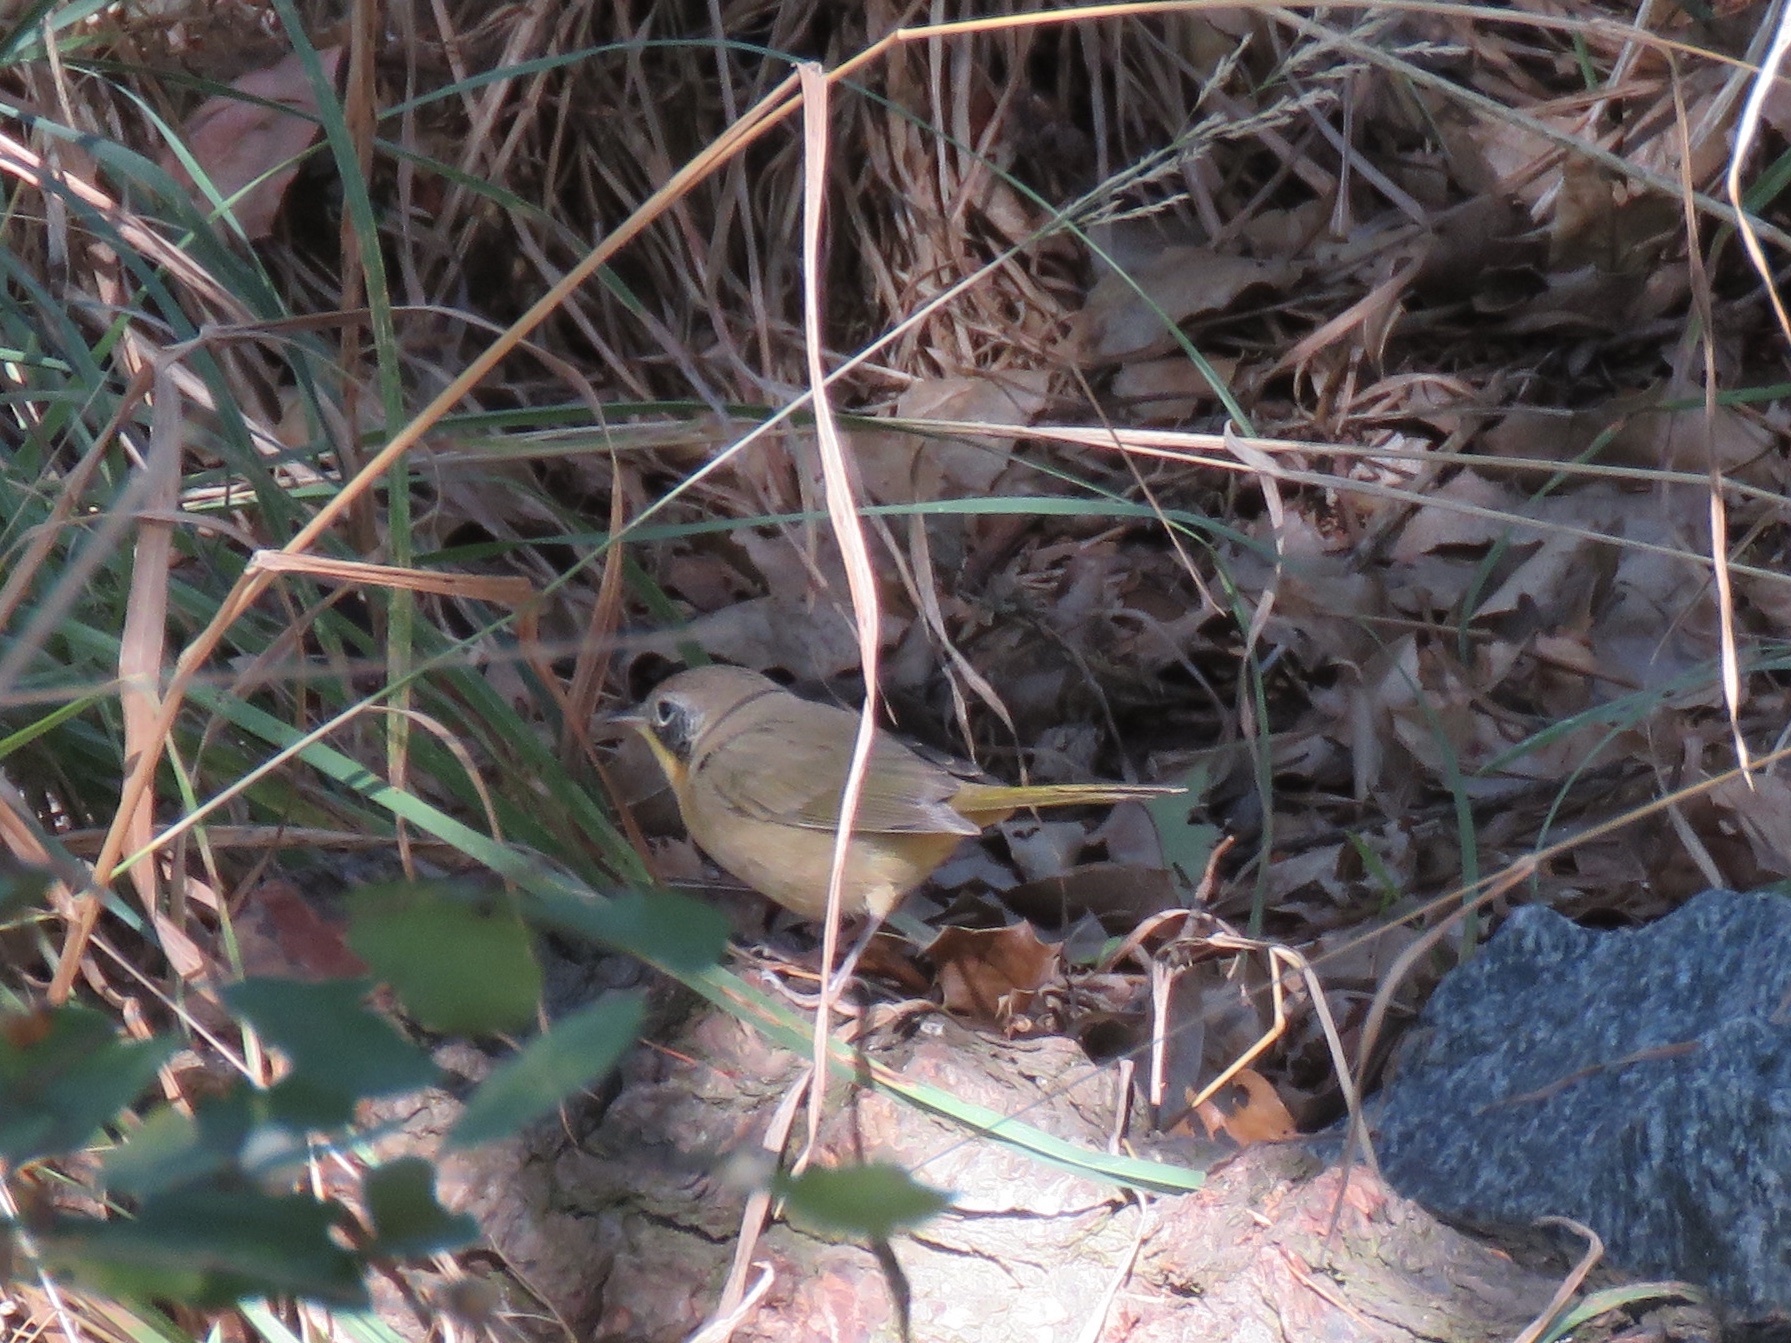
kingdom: Animalia
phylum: Chordata
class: Aves
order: Passeriformes
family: Parulidae
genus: Geothlypis
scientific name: Geothlypis trichas
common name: Common yellowthroat
